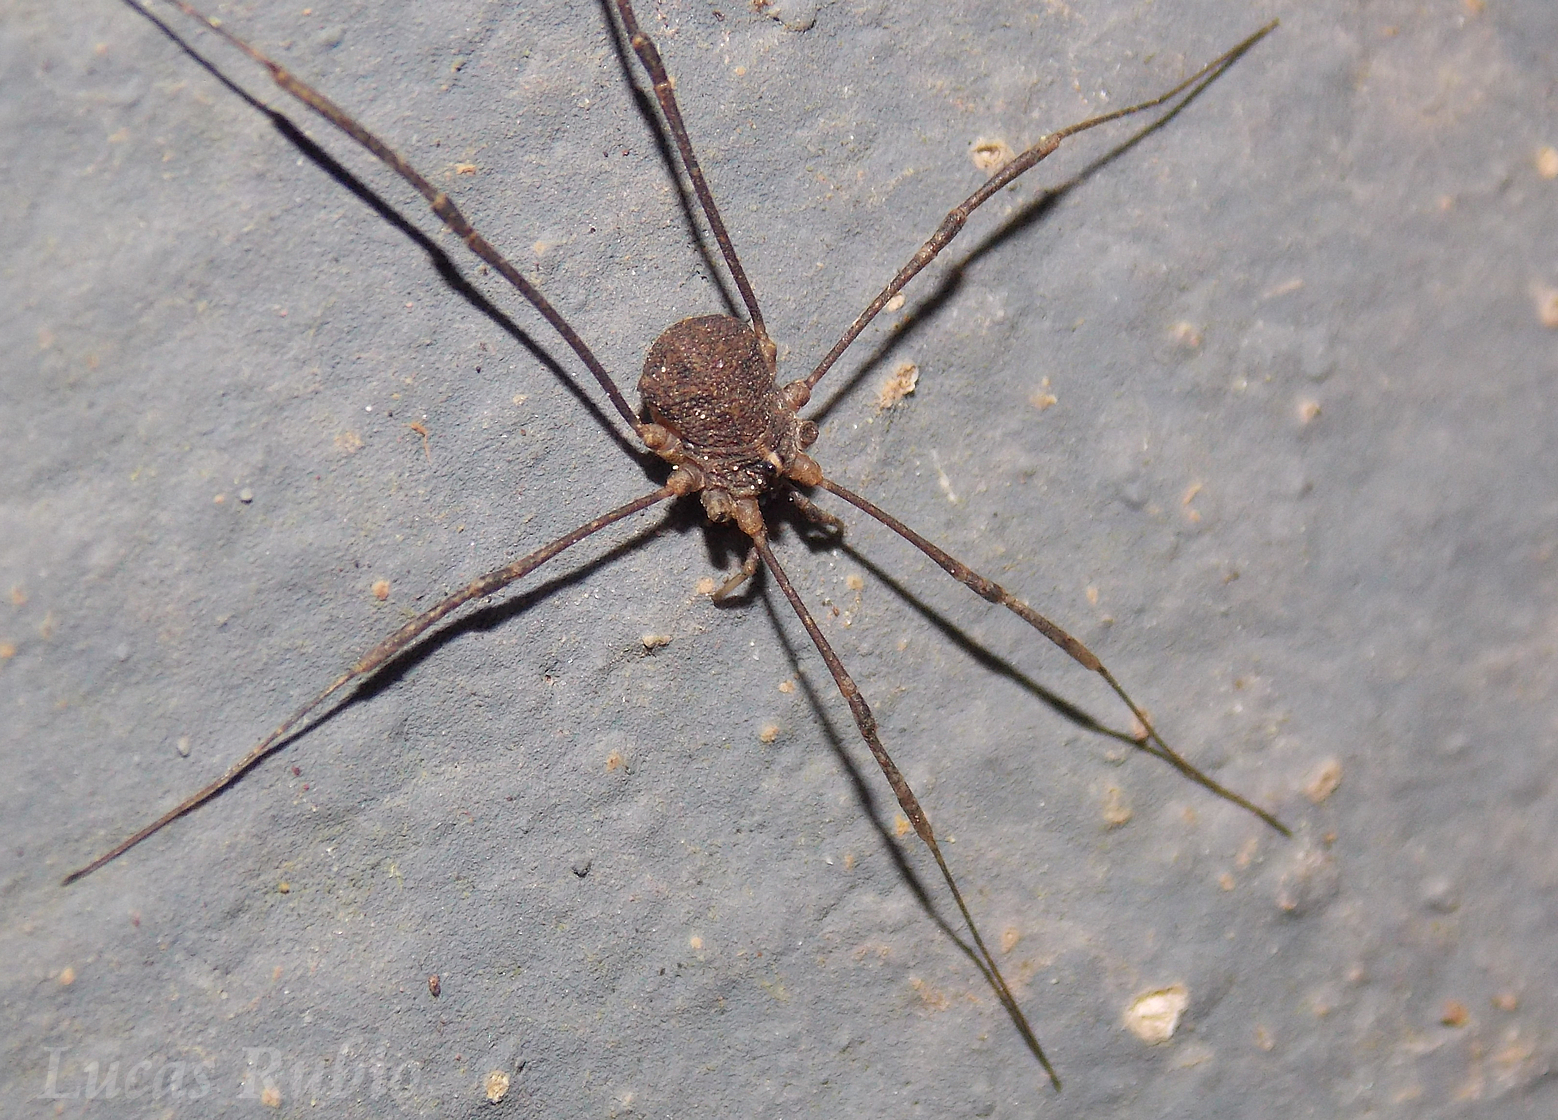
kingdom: Animalia
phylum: Arthropoda
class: Arachnida
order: Opiliones
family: Sclerosomatidae
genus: Holmbergiana
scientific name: Holmbergiana weyenberghii
